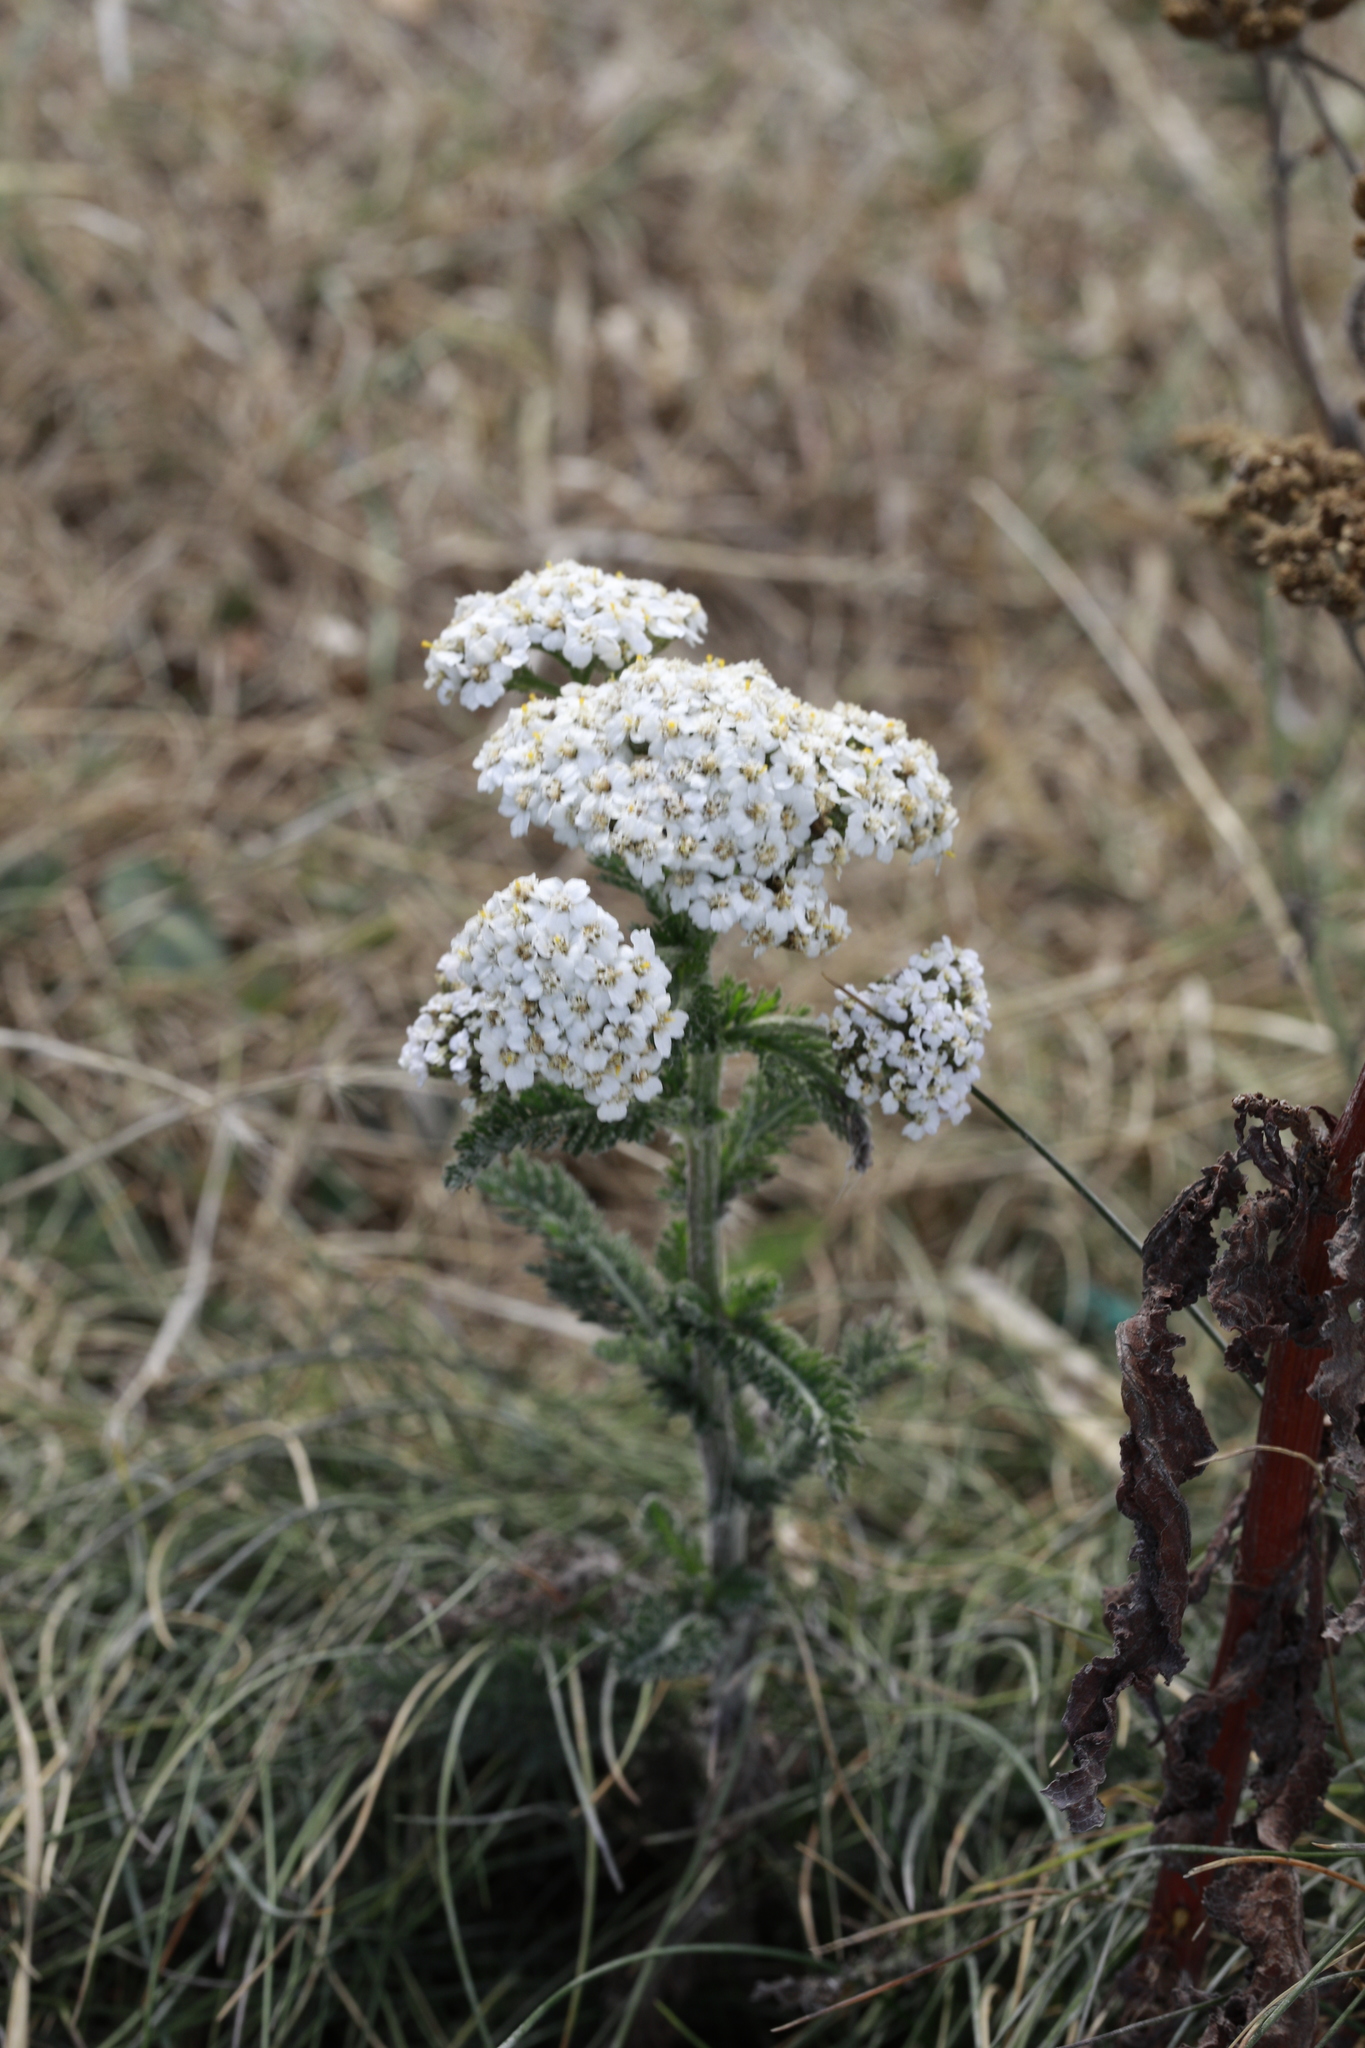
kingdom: Plantae
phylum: Tracheophyta
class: Magnoliopsida
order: Asterales
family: Asteraceae
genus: Achillea
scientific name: Achillea millefolium
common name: Yarrow
